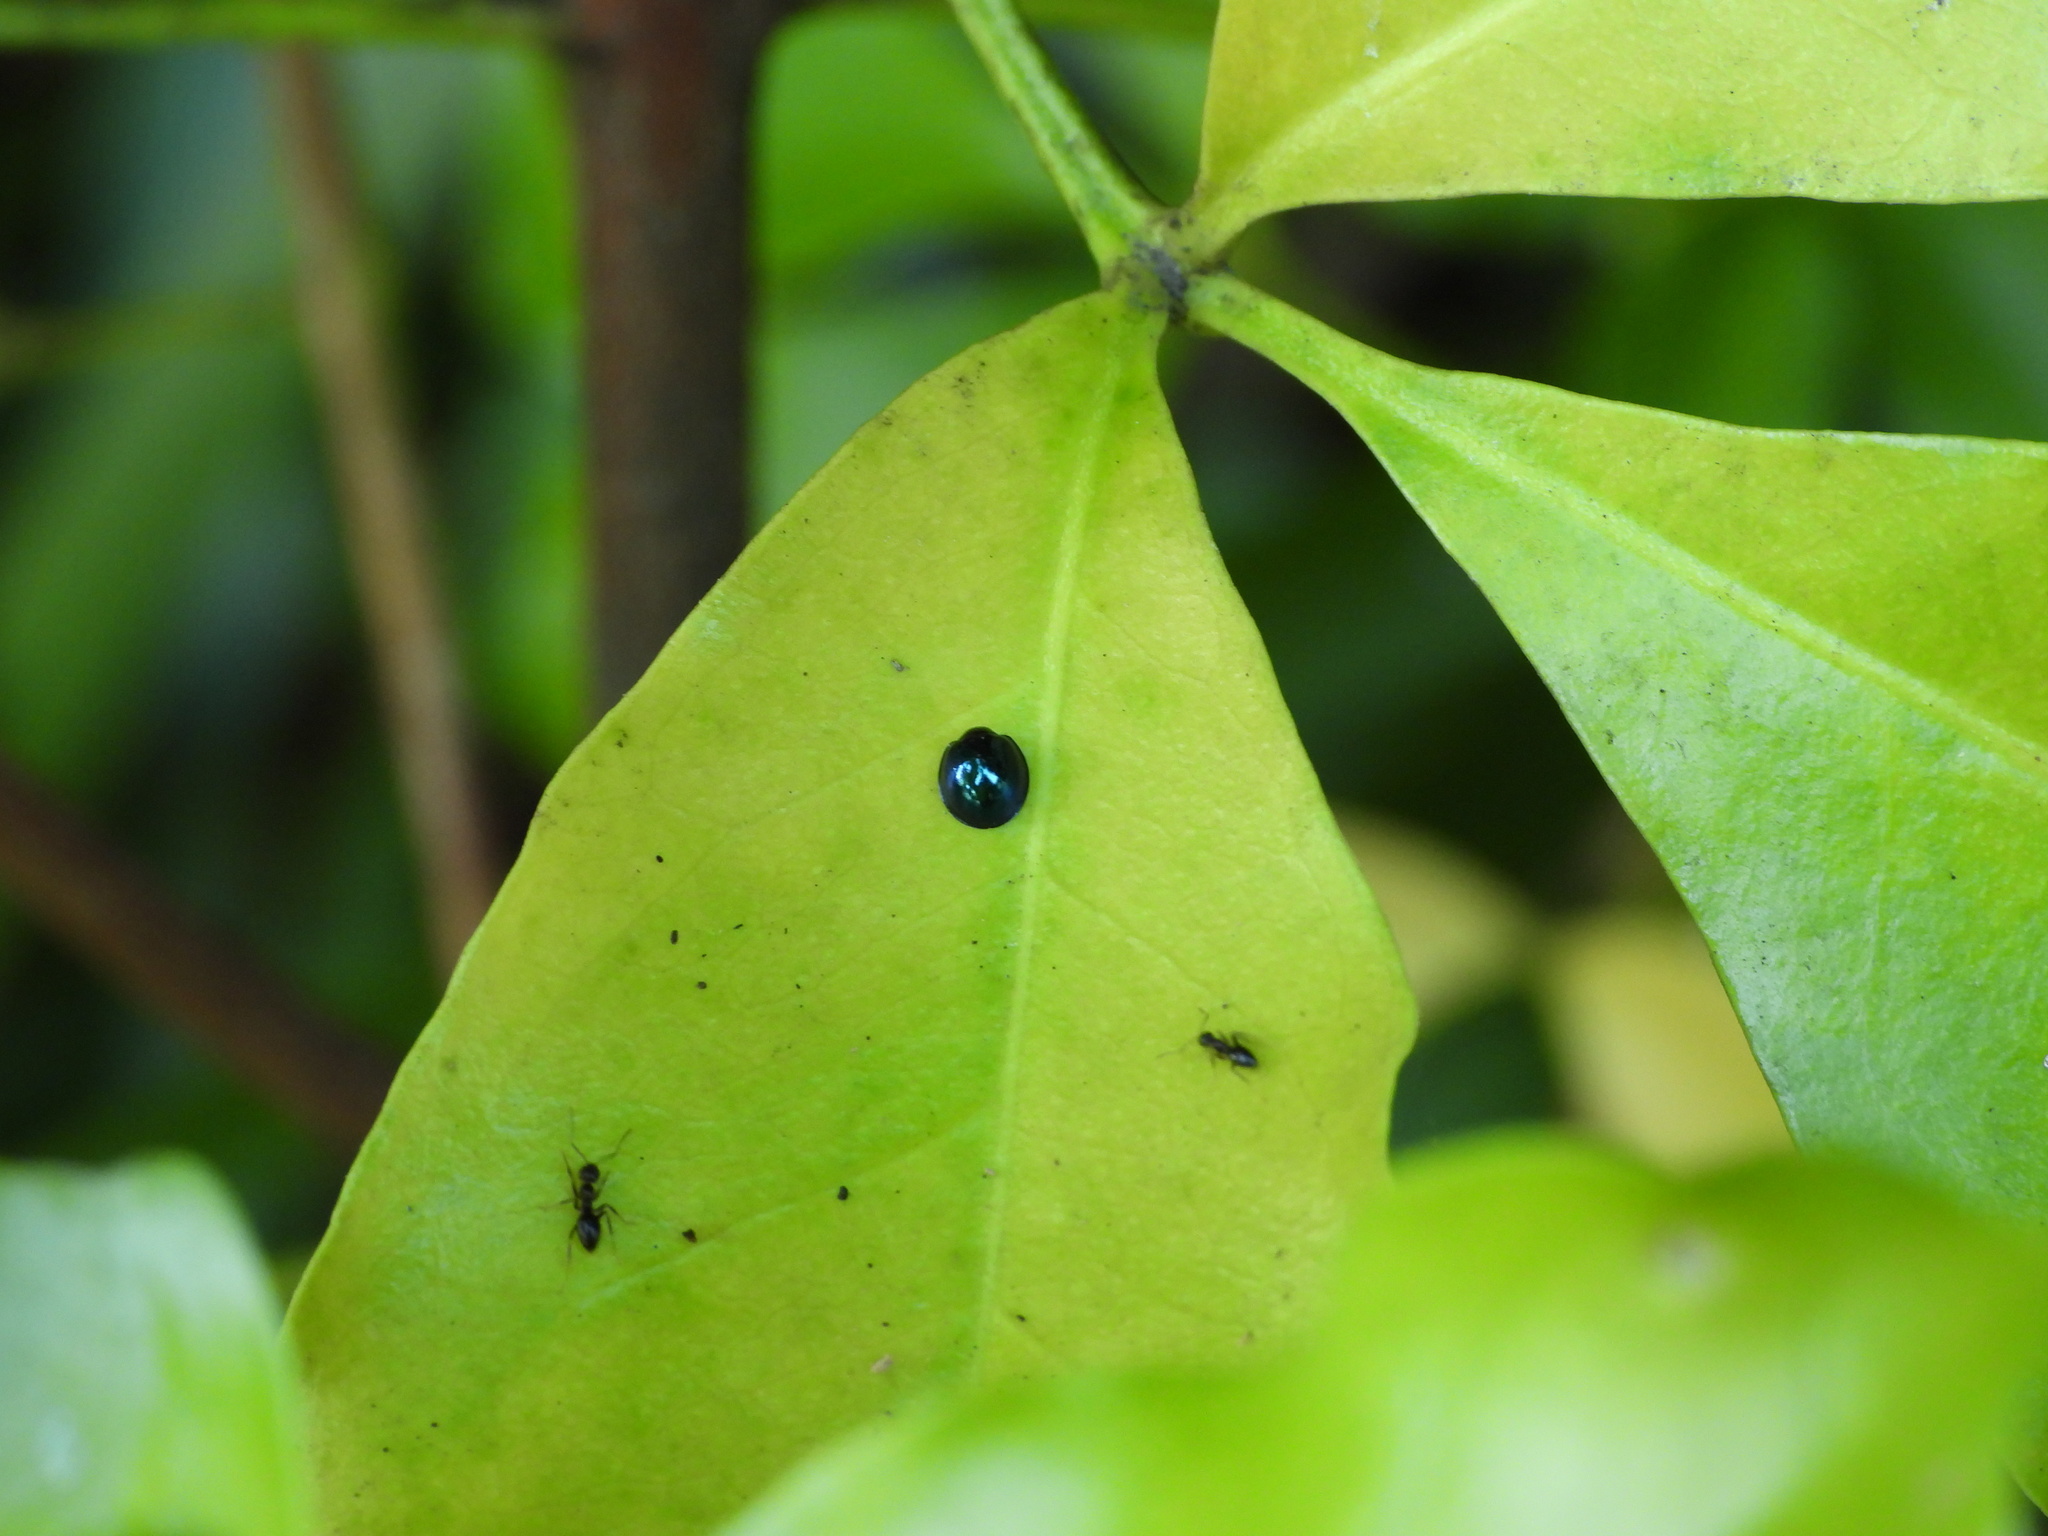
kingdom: Animalia
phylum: Arthropoda
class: Insecta
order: Coleoptera
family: Coccinellidae
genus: Halmus
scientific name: Halmus chalybeus
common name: Steel blue ladybird beetle
